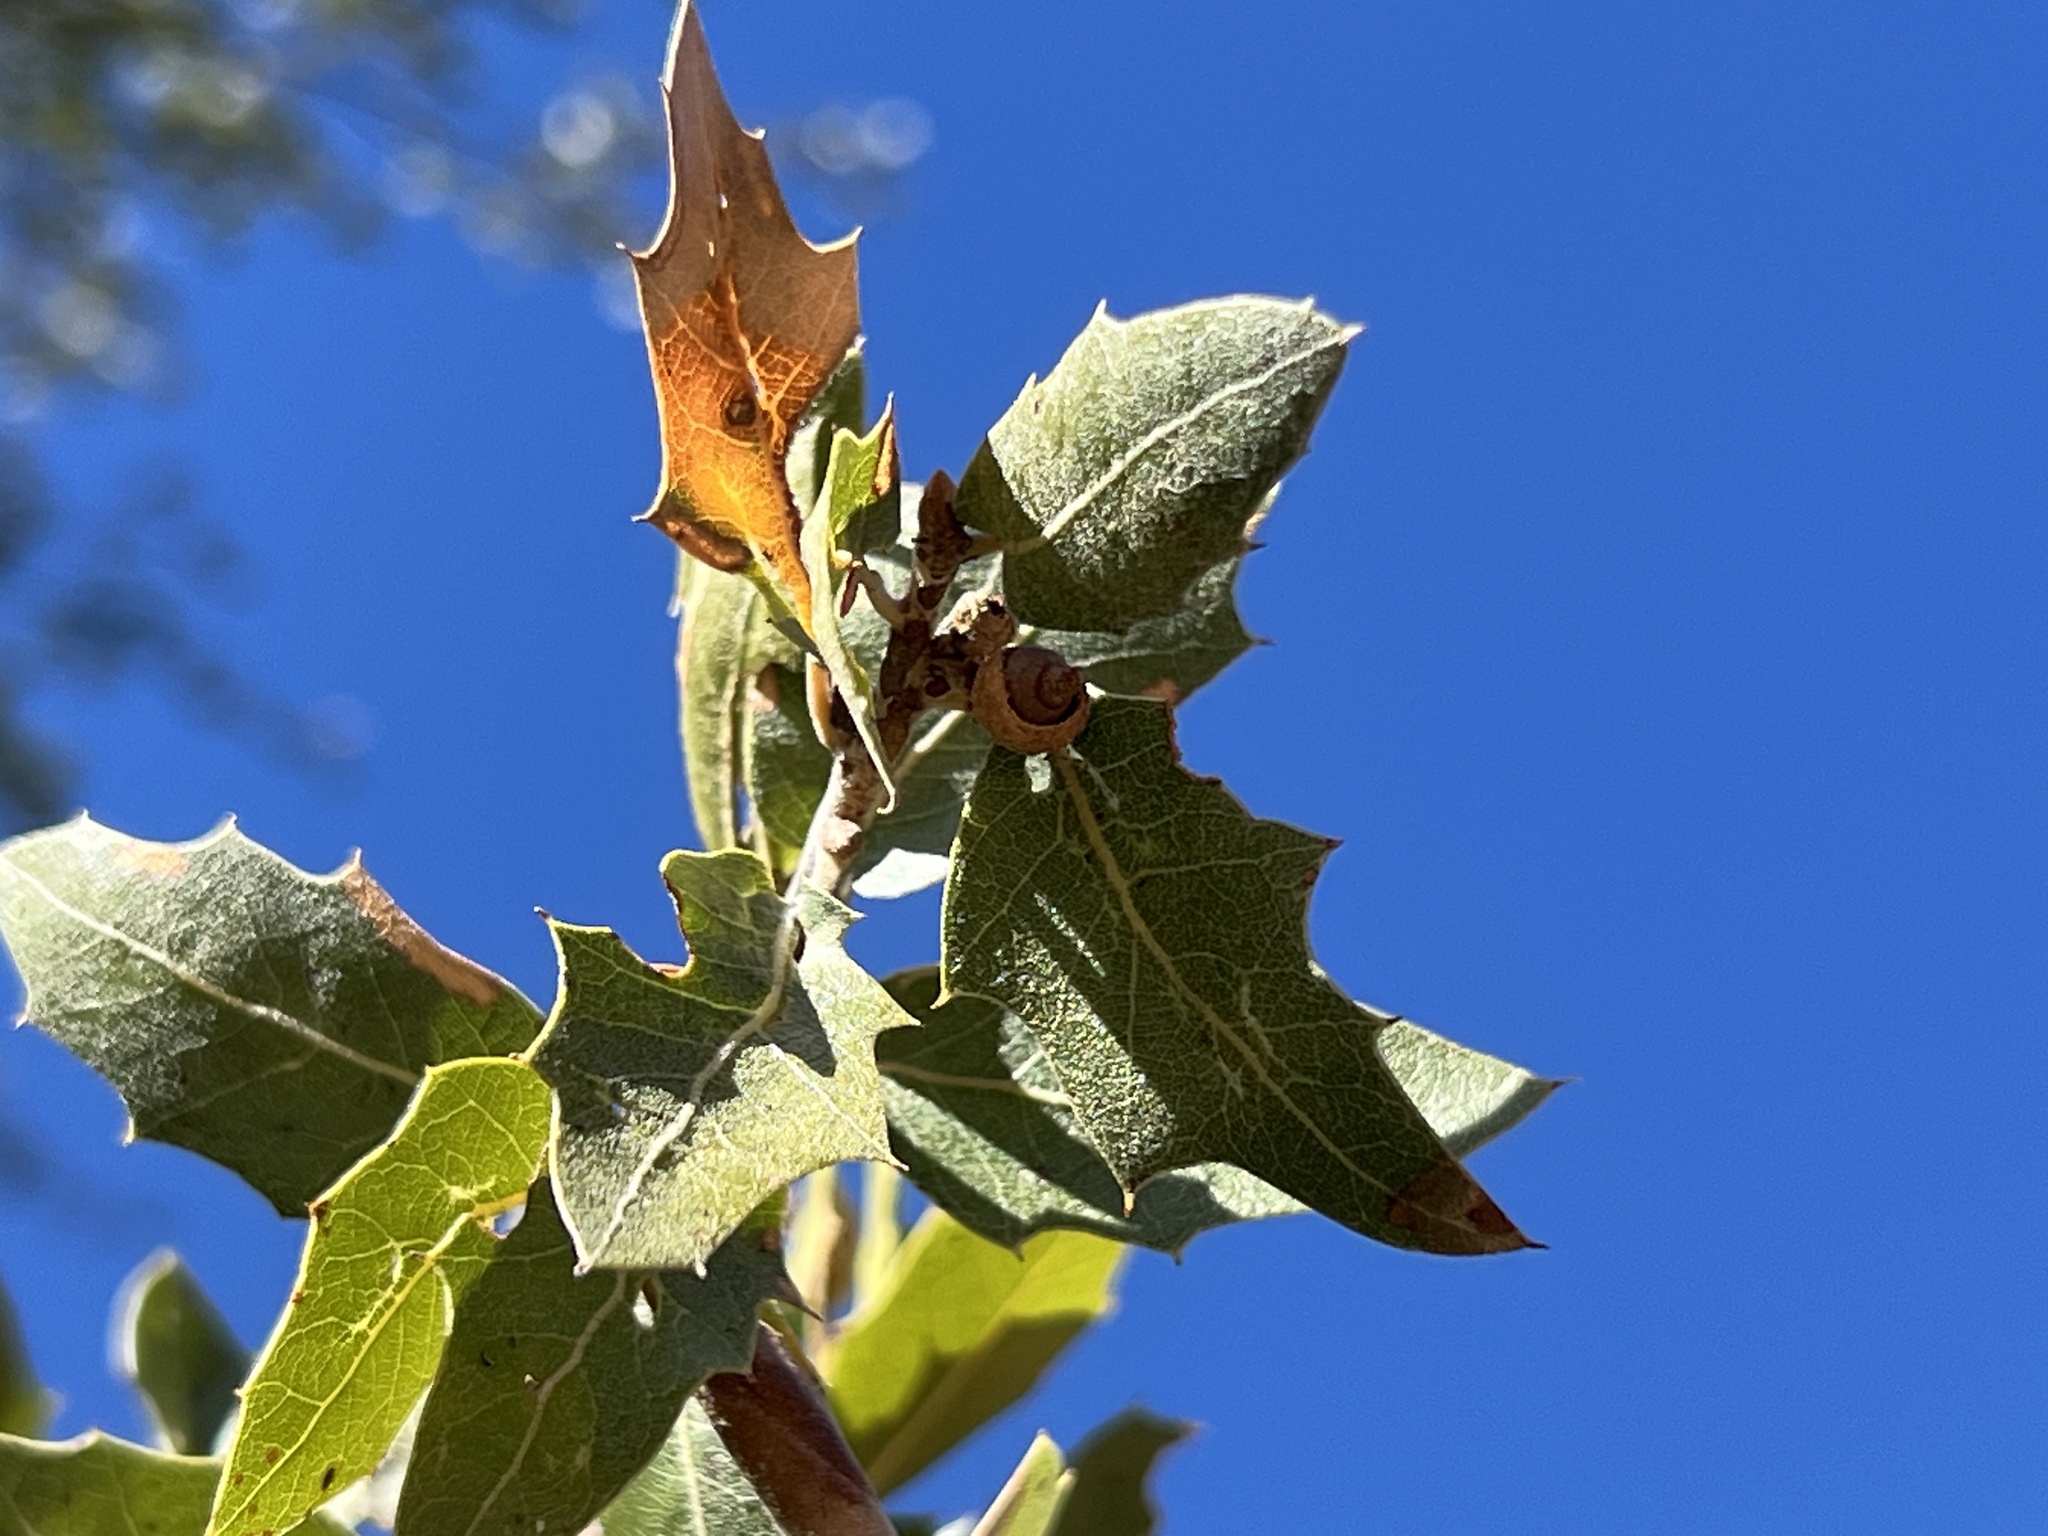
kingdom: Plantae
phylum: Tracheophyta
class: Magnoliopsida
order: Fagales
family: Fagaceae
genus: Quercus
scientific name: Quercus emoryi
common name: Emory oak
